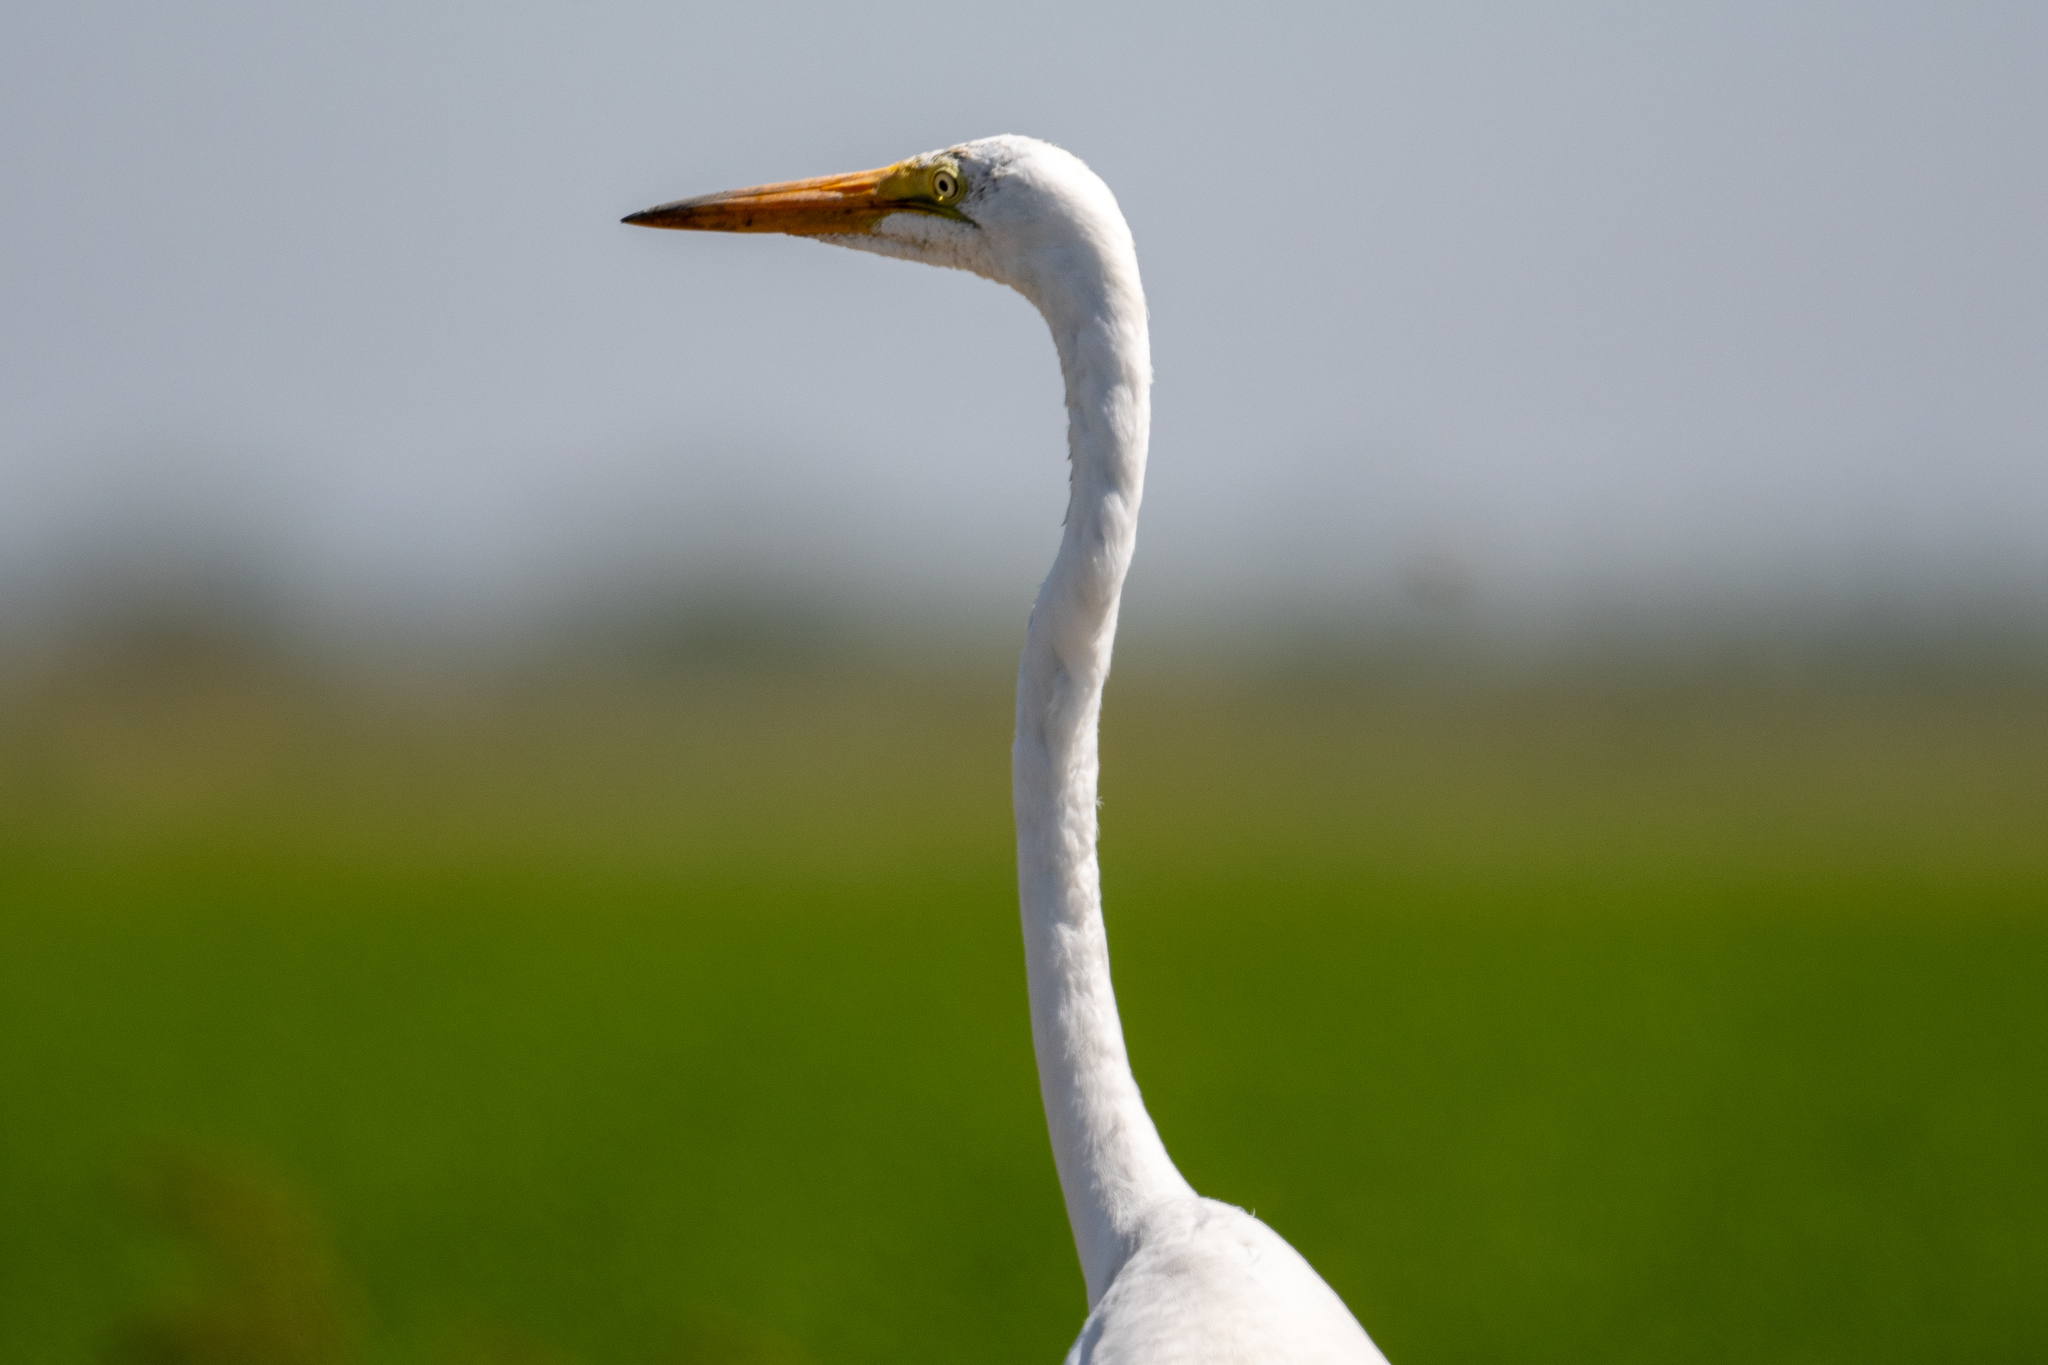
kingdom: Animalia
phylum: Chordata
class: Aves
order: Pelecaniformes
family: Ardeidae
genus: Ardea
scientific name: Ardea alba
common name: Great egret
